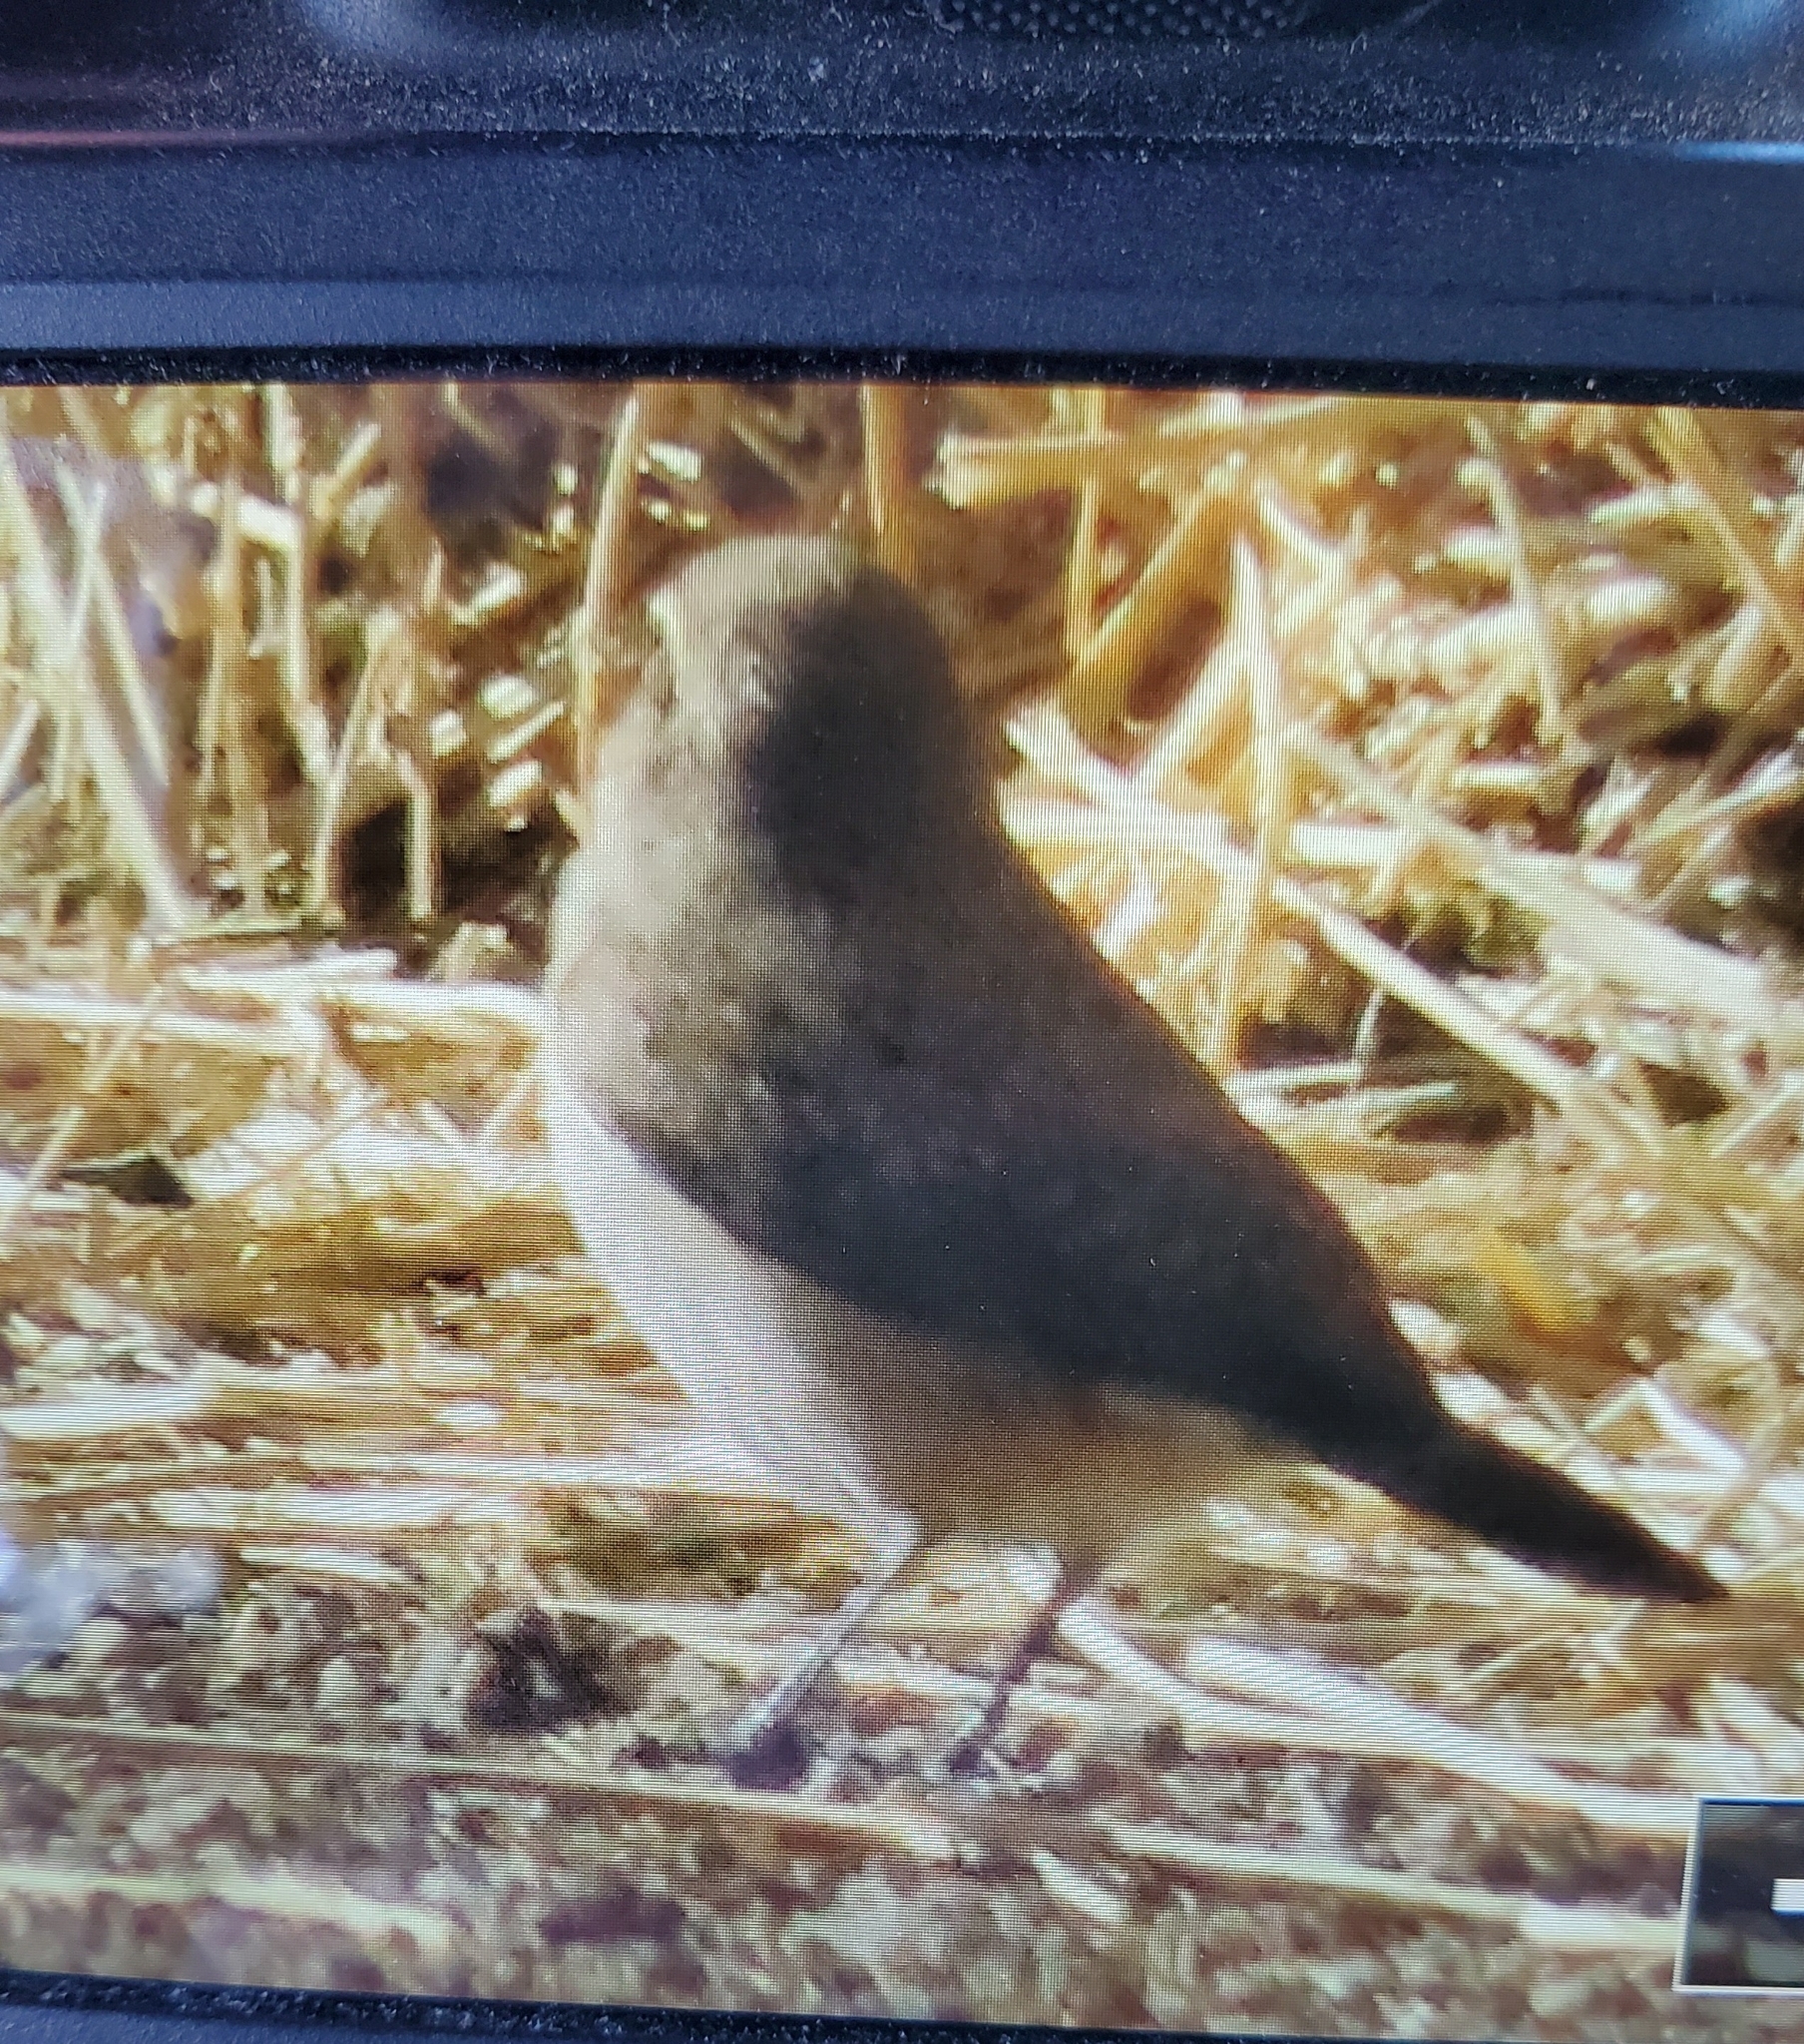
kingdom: Animalia
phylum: Chordata
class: Aves
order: Passeriformes
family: Troglodytidae
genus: Salpinctes
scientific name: Salpinctes obsoletus
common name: Rock wren
